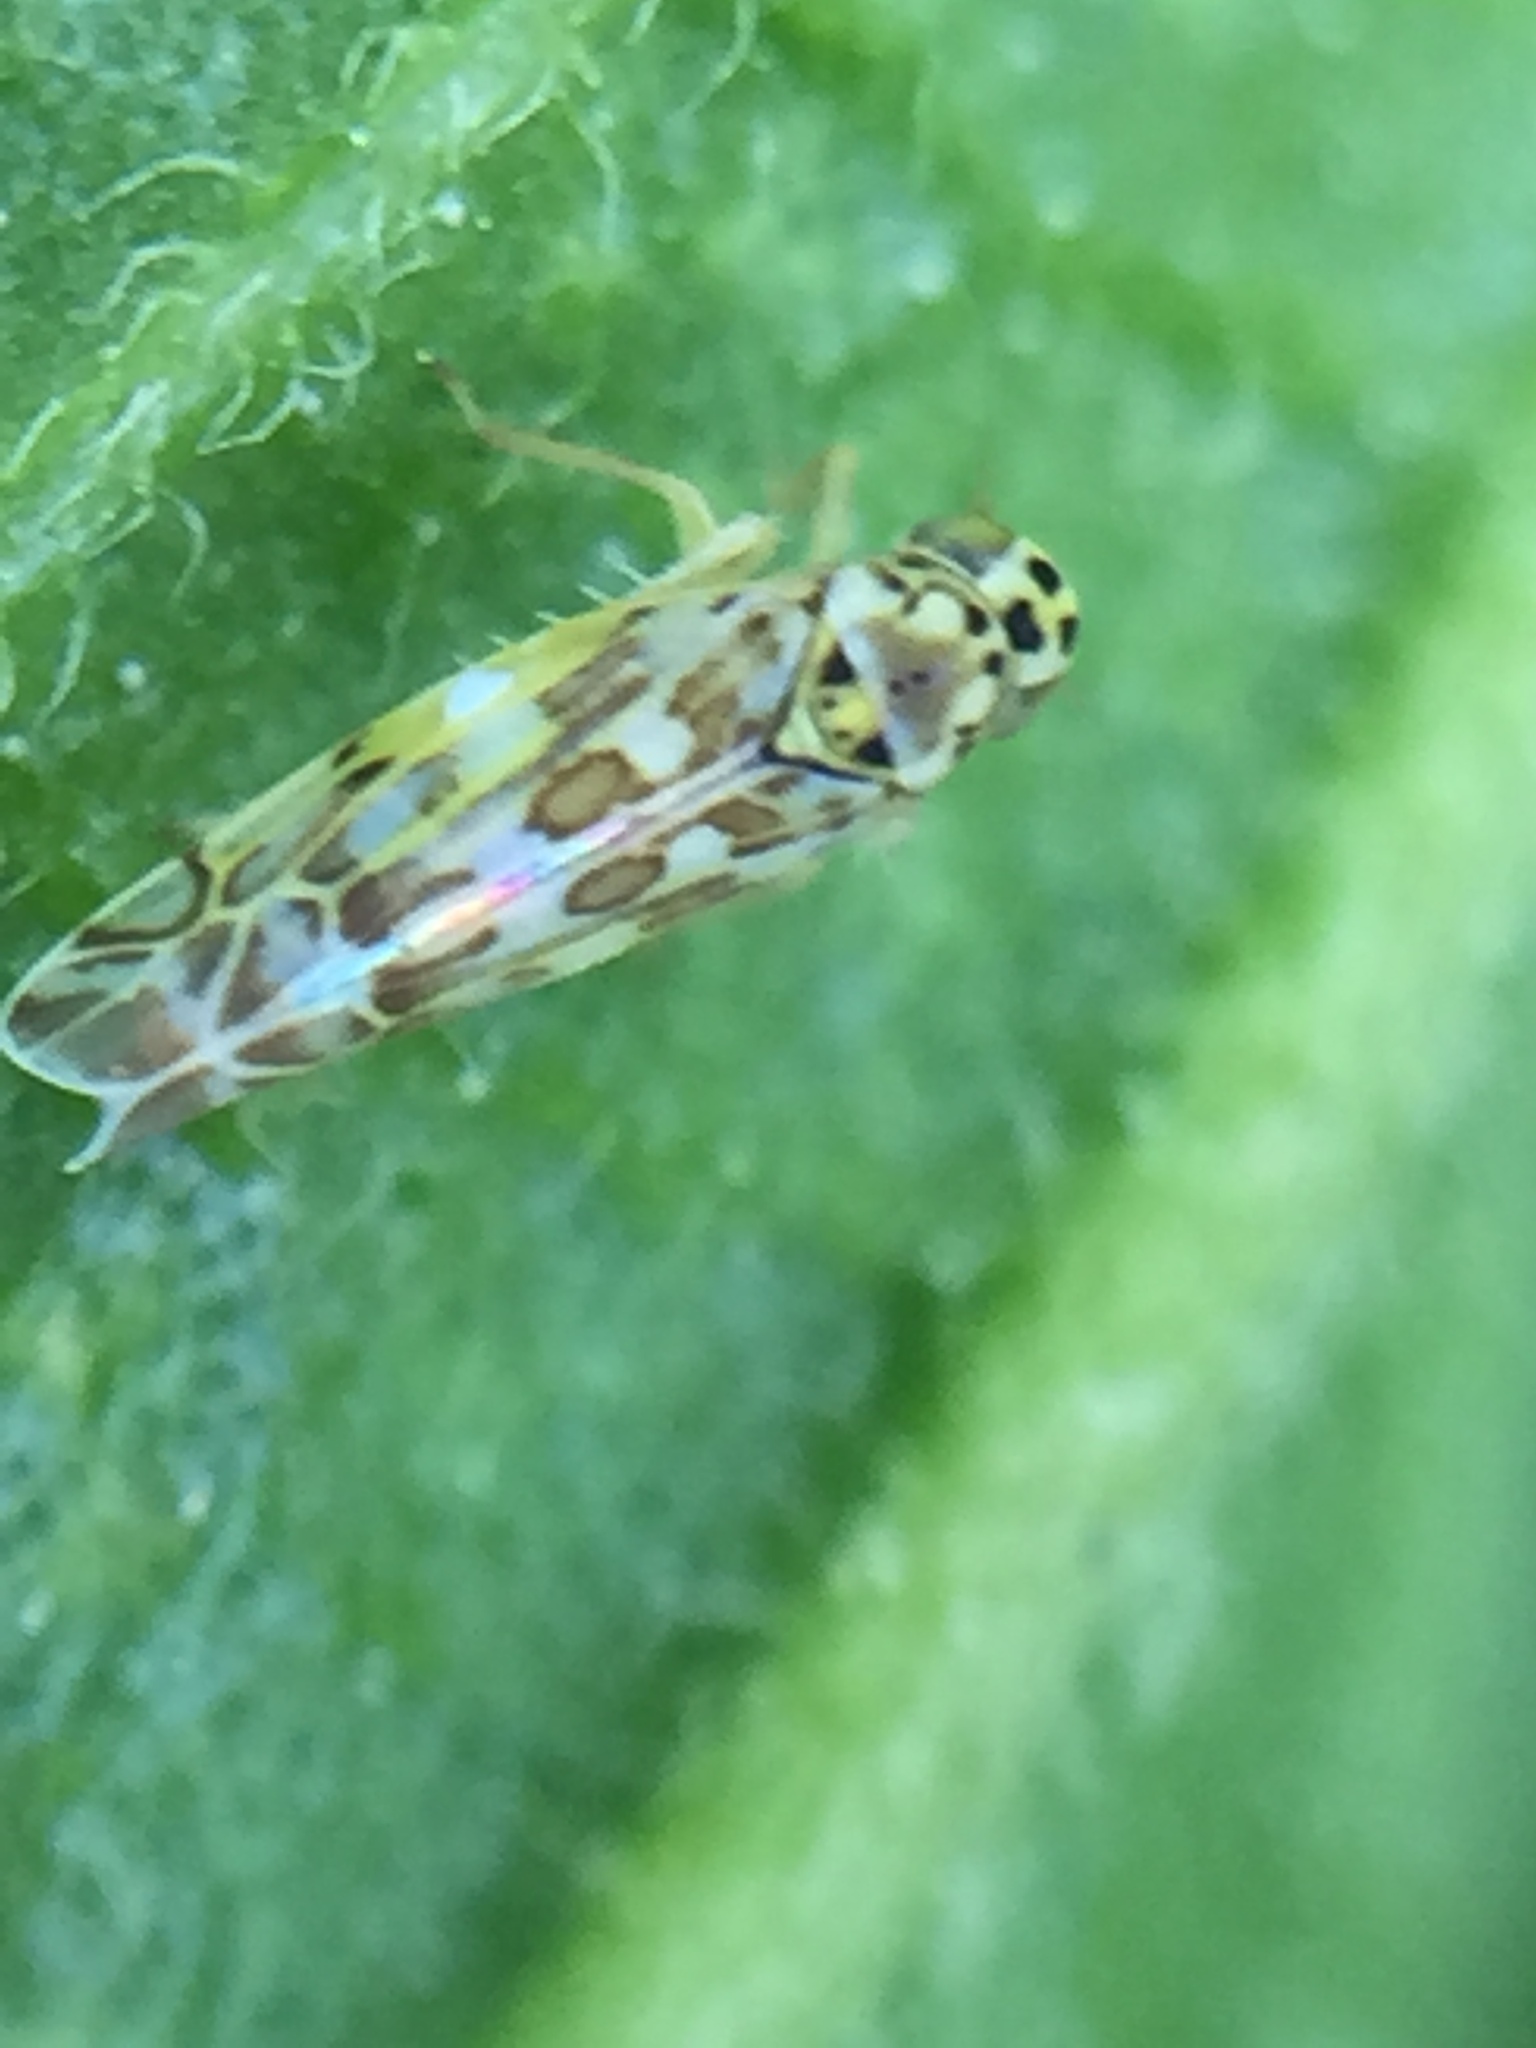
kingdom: Animalia
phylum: Arthropoda
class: Insecta
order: Hemiptera
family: Cicadellidae
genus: Eupteryx
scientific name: Eupteryx melissae
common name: Herb leafhopper
